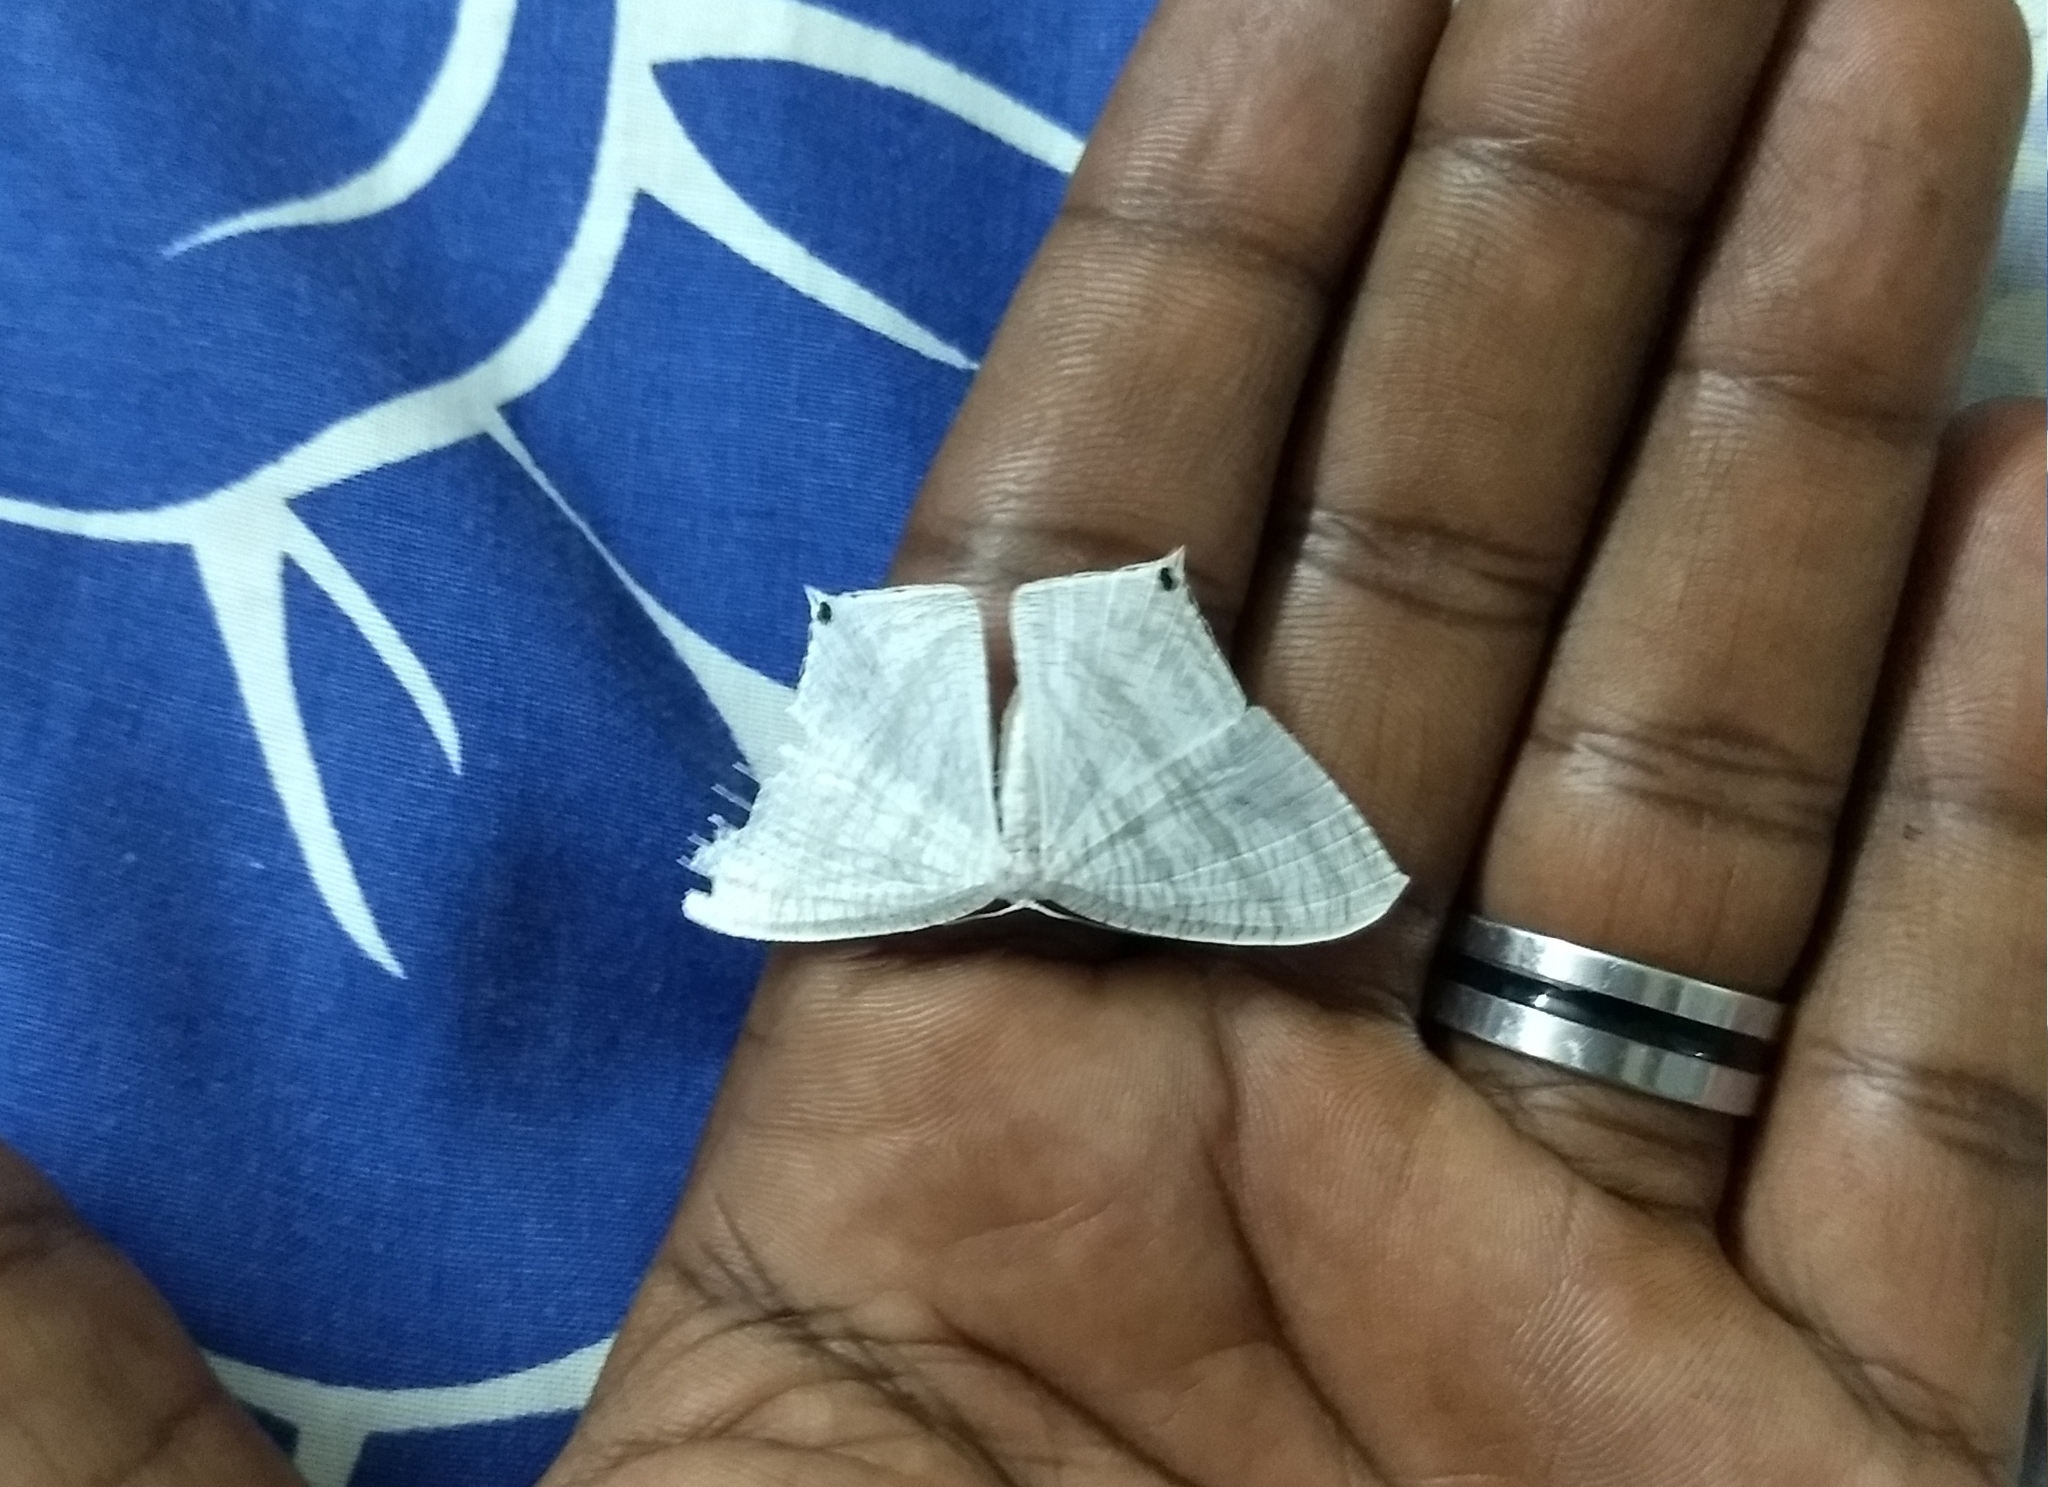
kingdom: Animalia
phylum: Arthropoda
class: Insecta
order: Lepidoptera
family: Uraniidae
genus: Micronia
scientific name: Micronia aculeata
